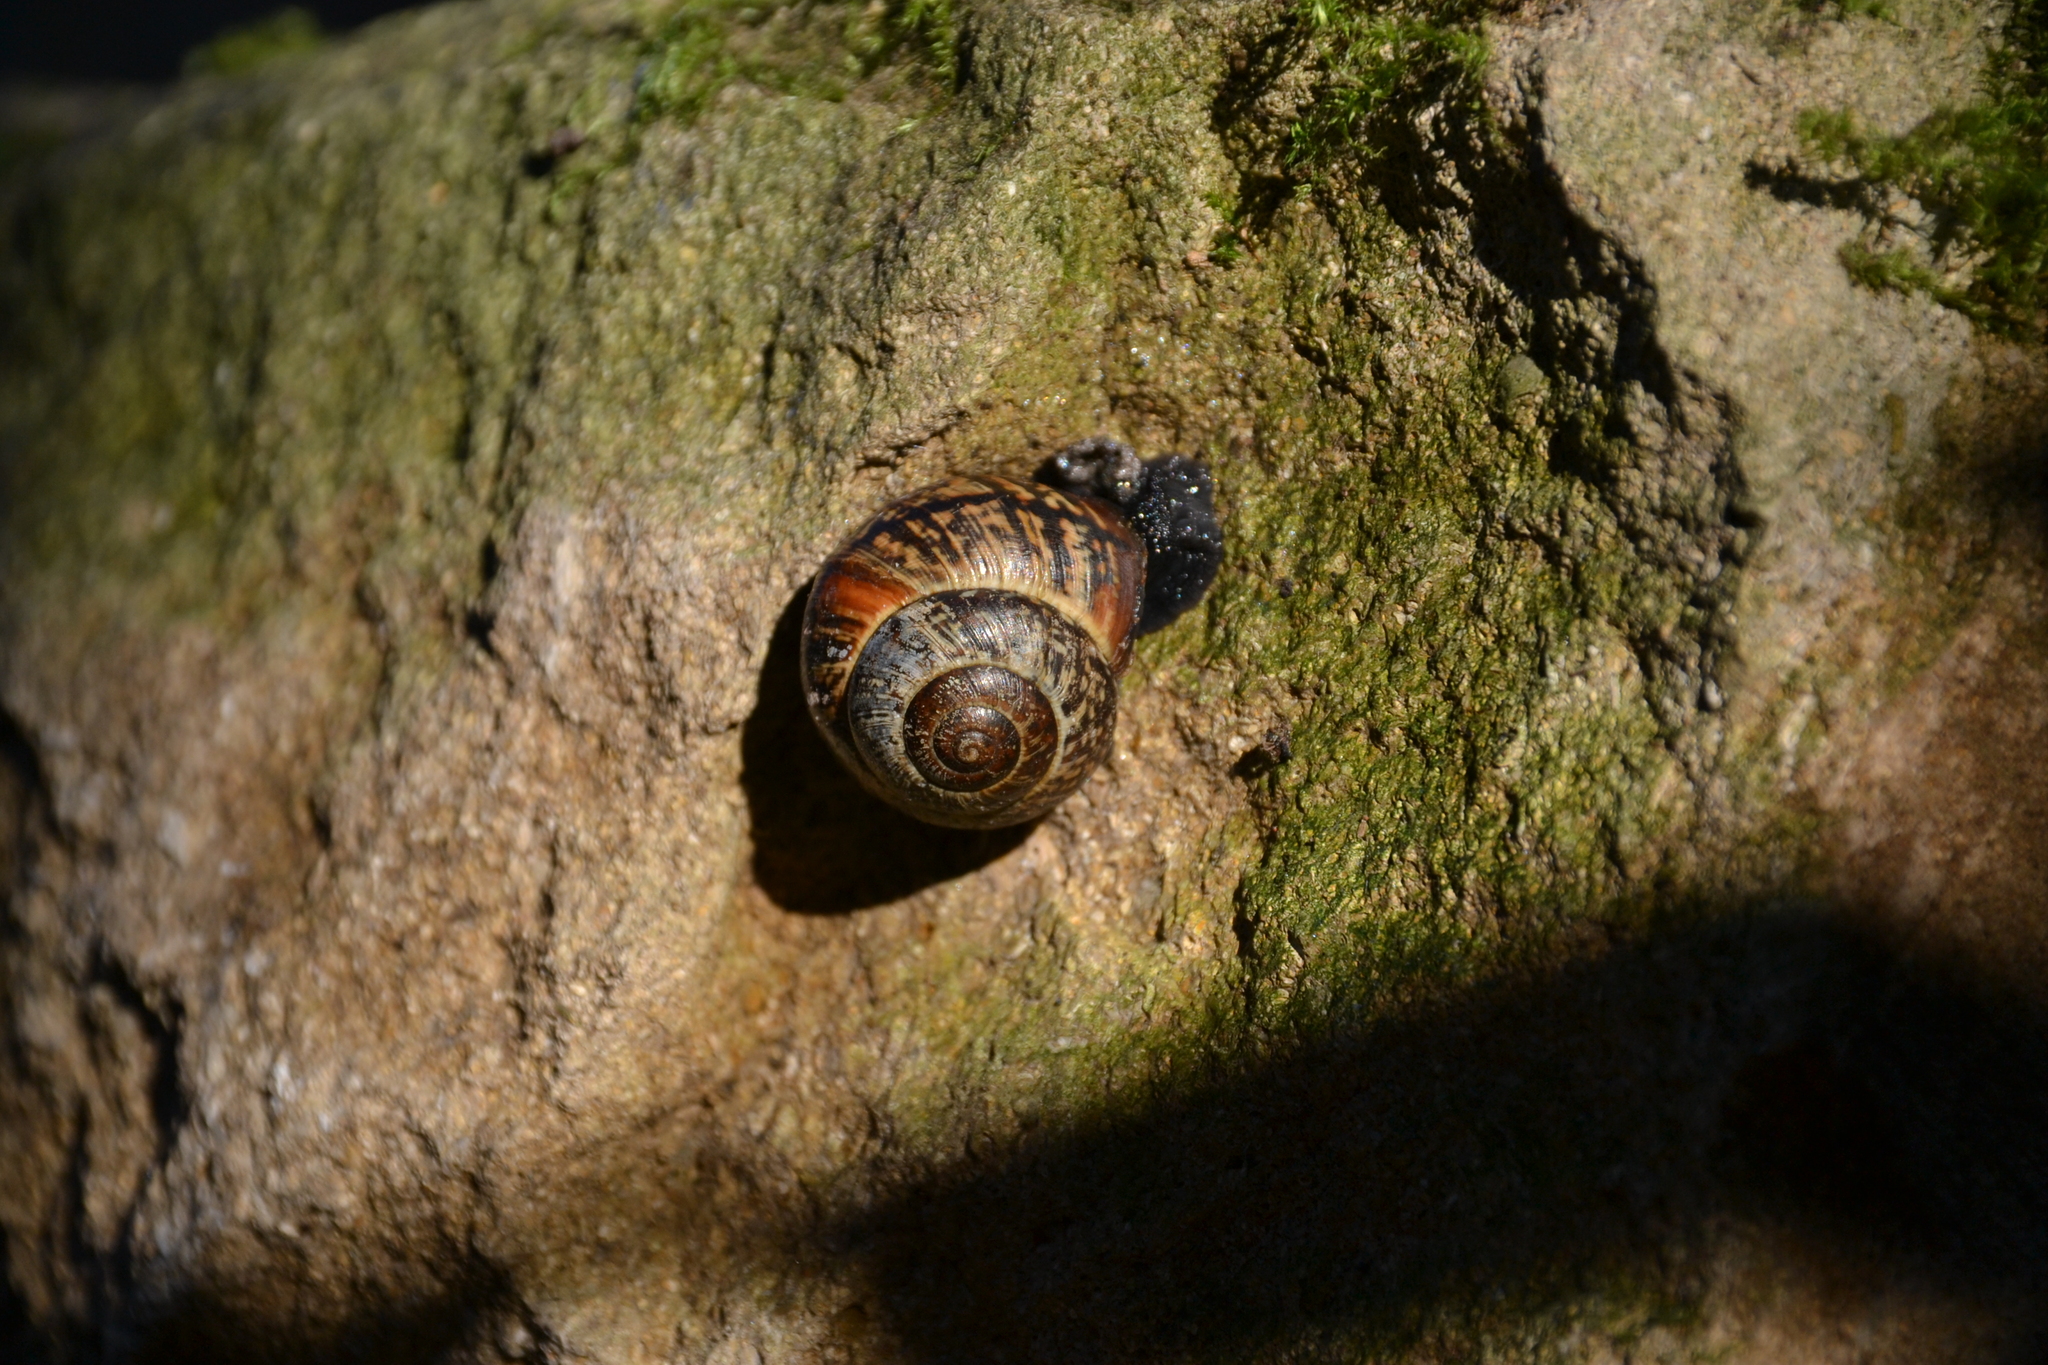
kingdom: Animalia
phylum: Mollusca
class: Gastropoda
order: Stylommatophora
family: Helicidae
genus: Arianta
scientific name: Arianta arbustorum
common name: Copse snail
